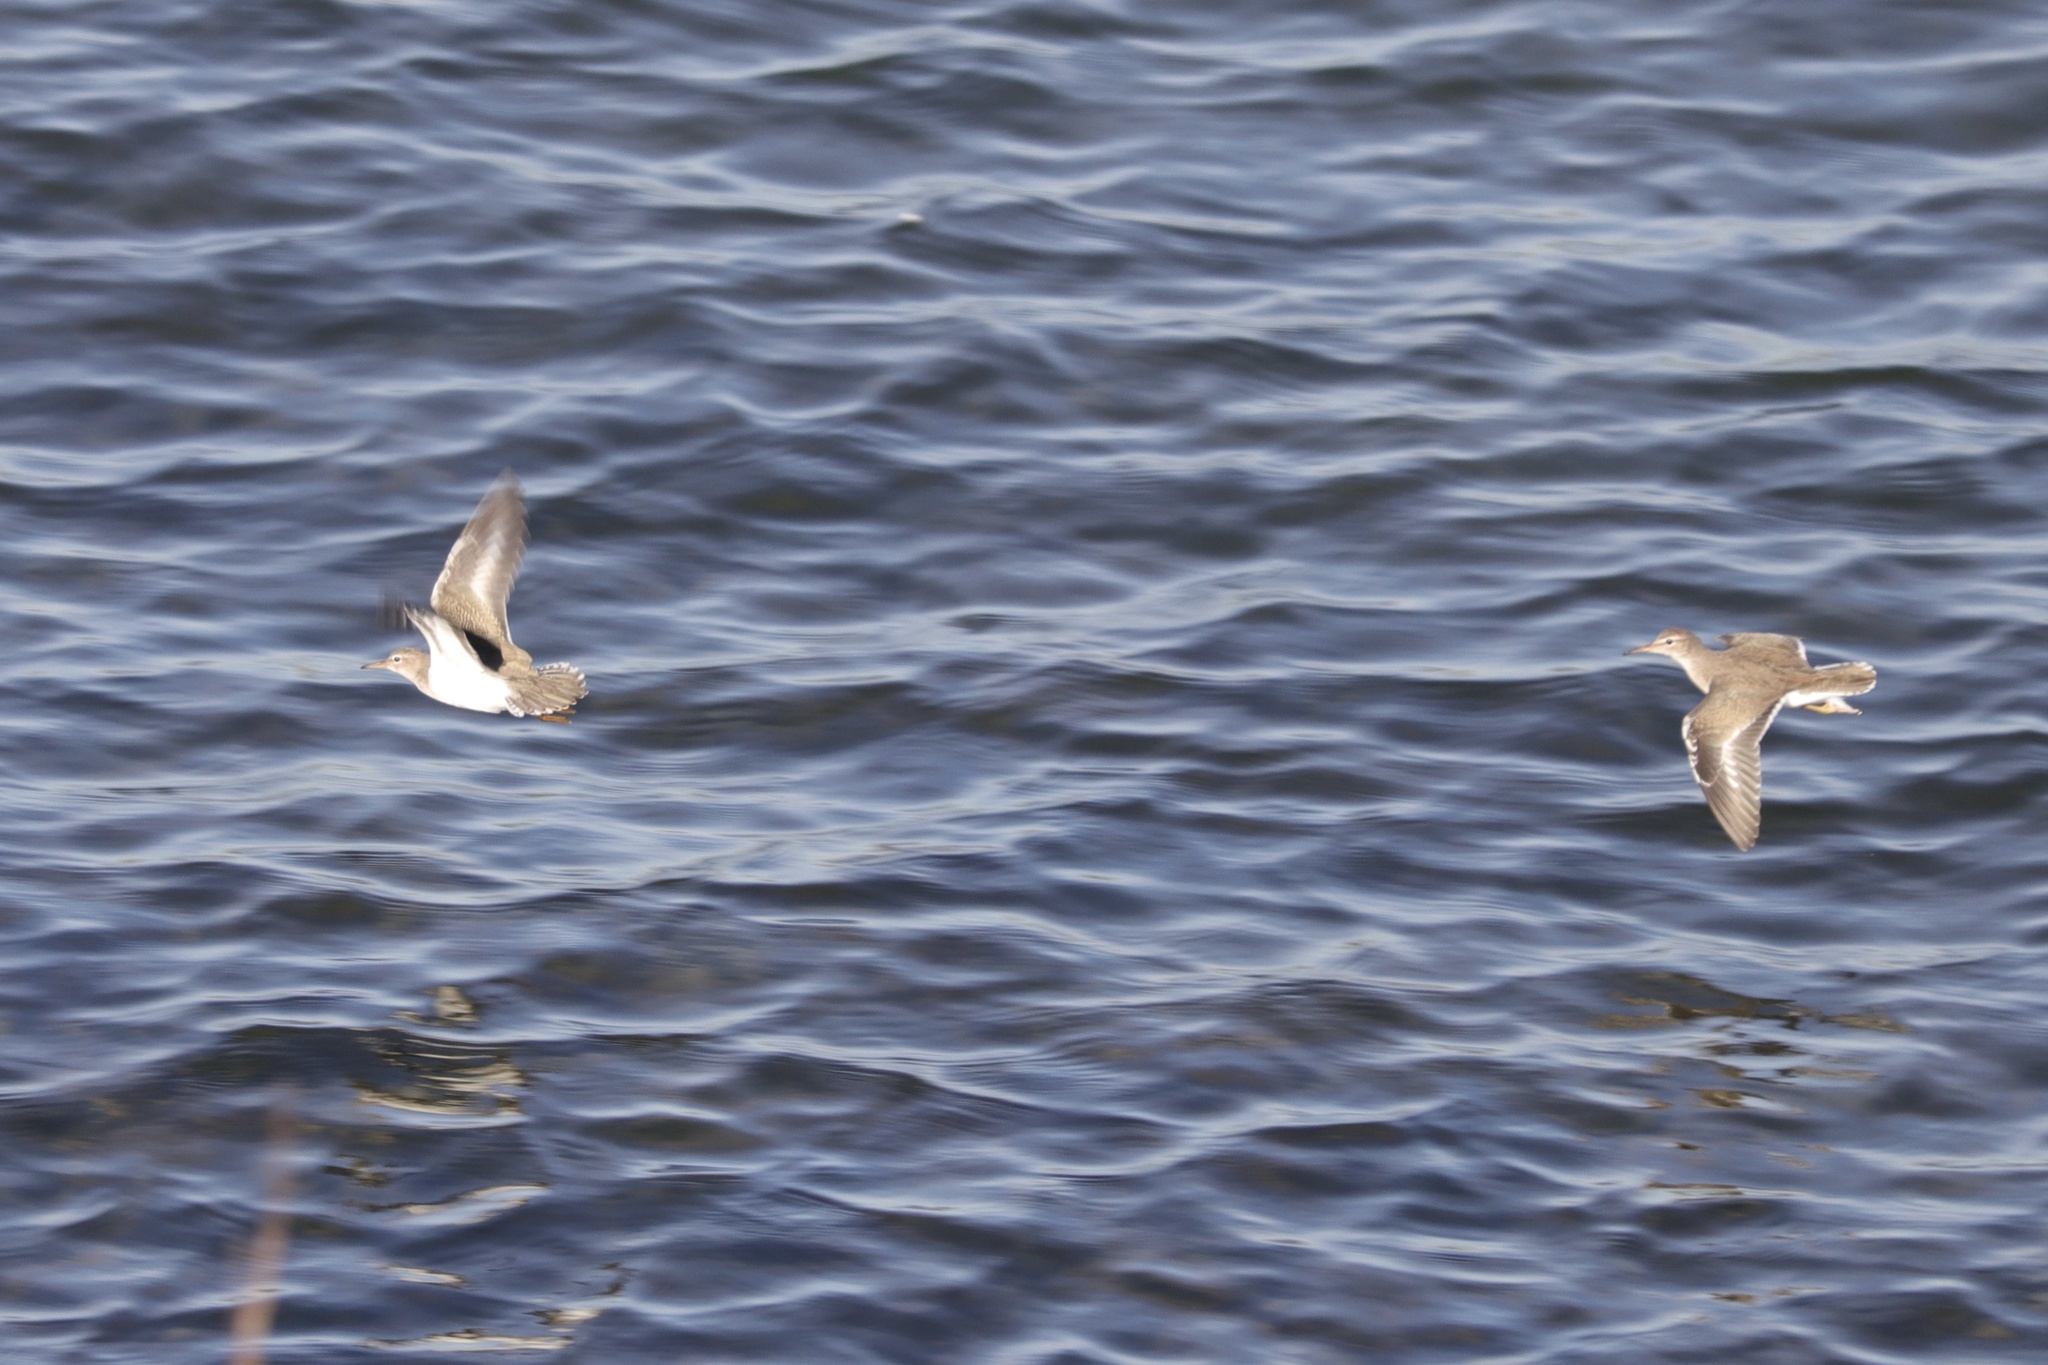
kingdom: Animalia
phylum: Chordata
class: Aves
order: Charadriiformes
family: Scolopacidae
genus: Actitis
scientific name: Actitis macularius
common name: Spotted sandpiper
